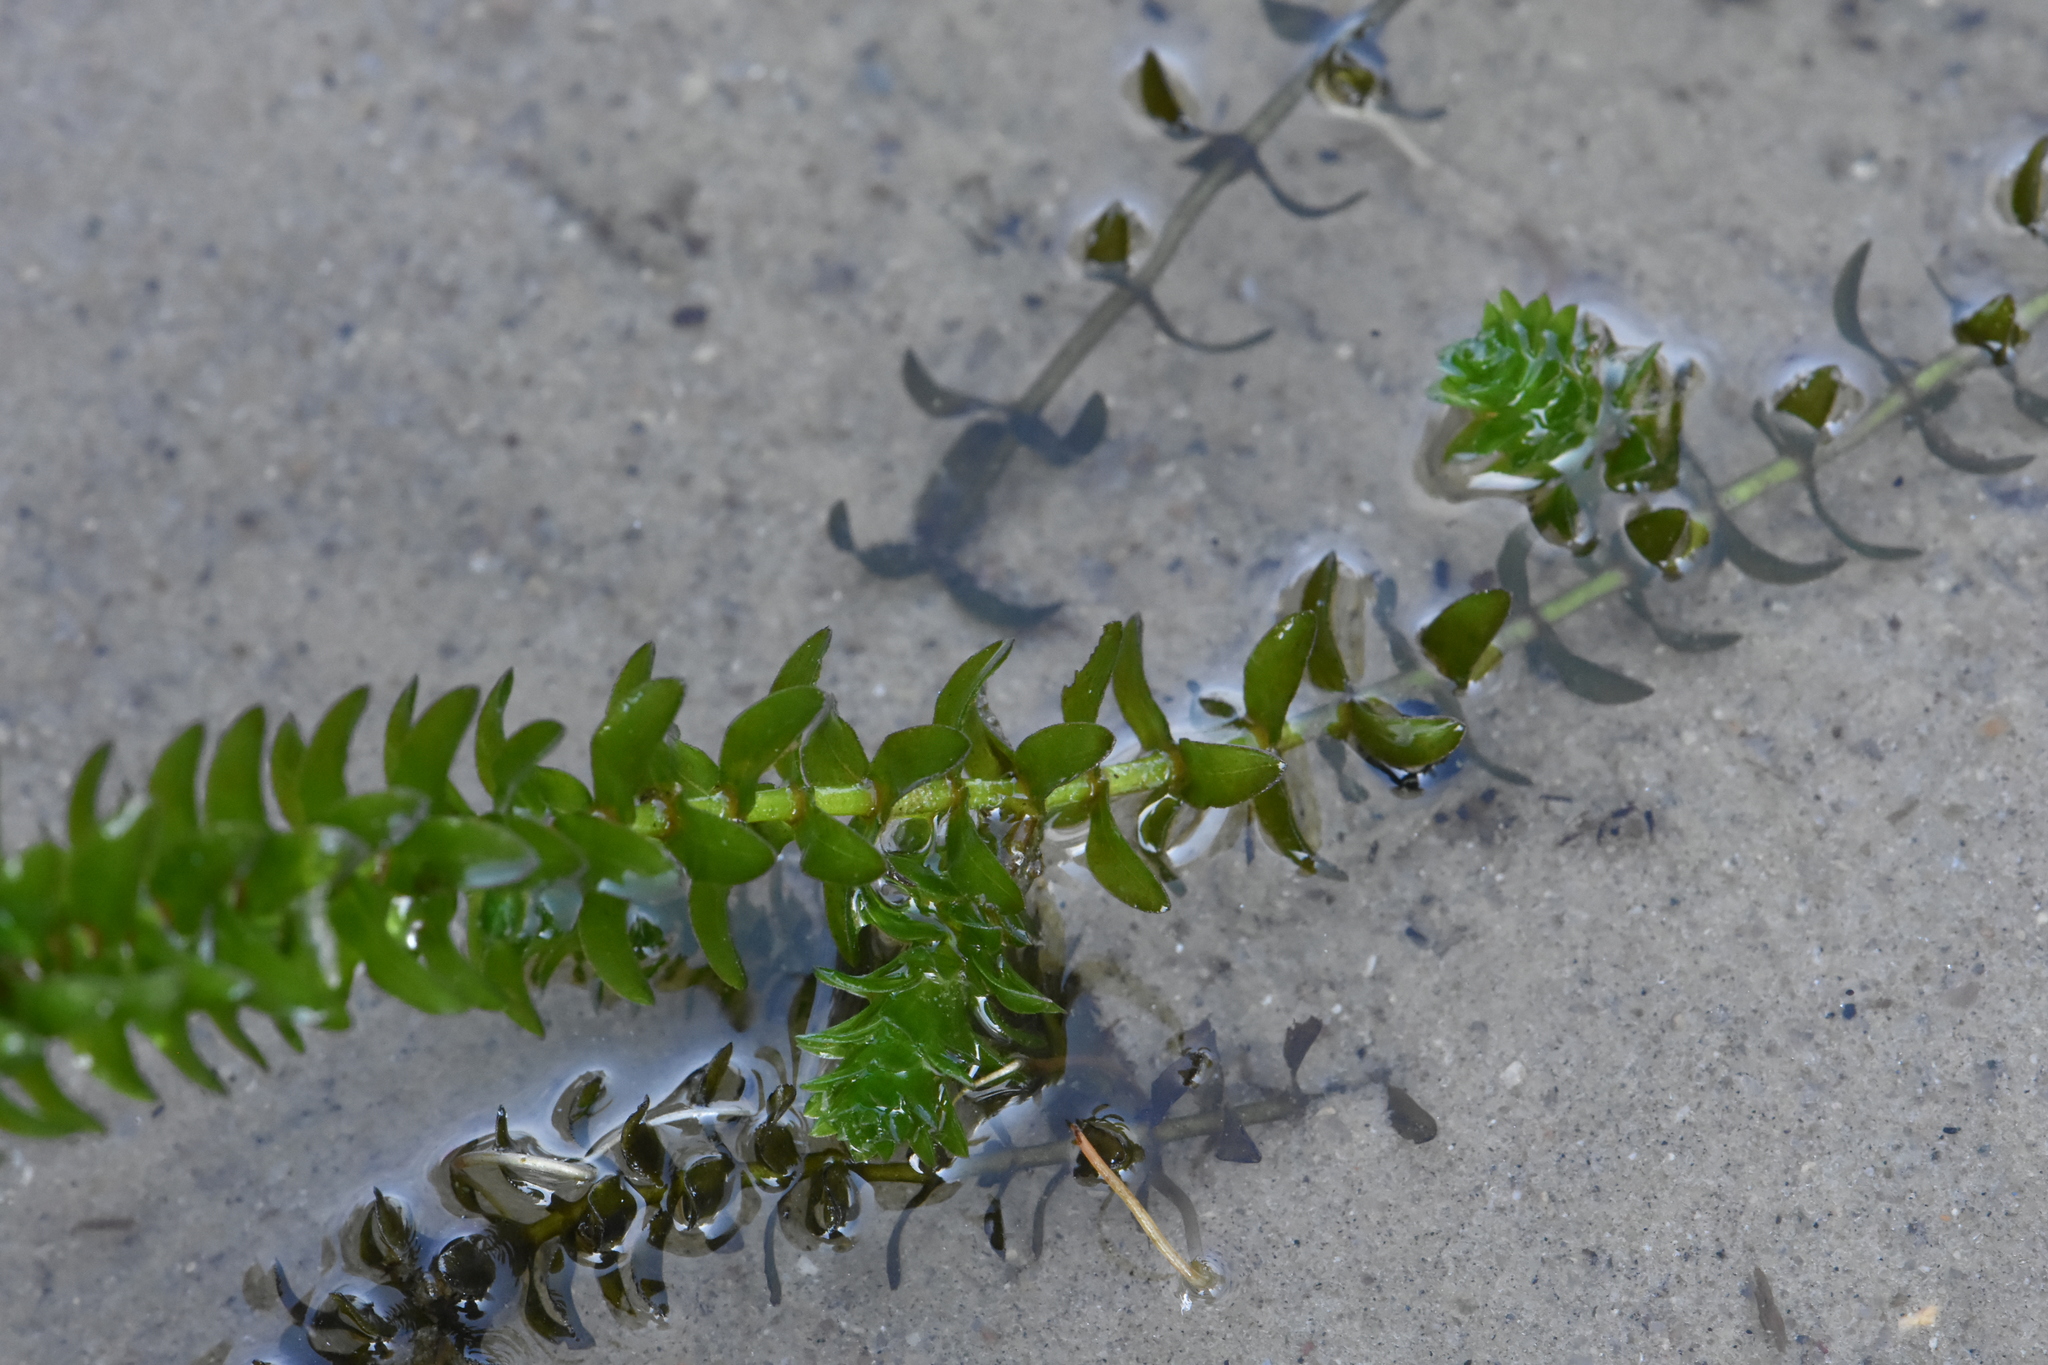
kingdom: Plantae
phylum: Tracheophyta
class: Liliopsida
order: Alismatales
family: Hydrocharitaceae
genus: Elodea
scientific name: Elodea canadensis
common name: Canadian waterweed
